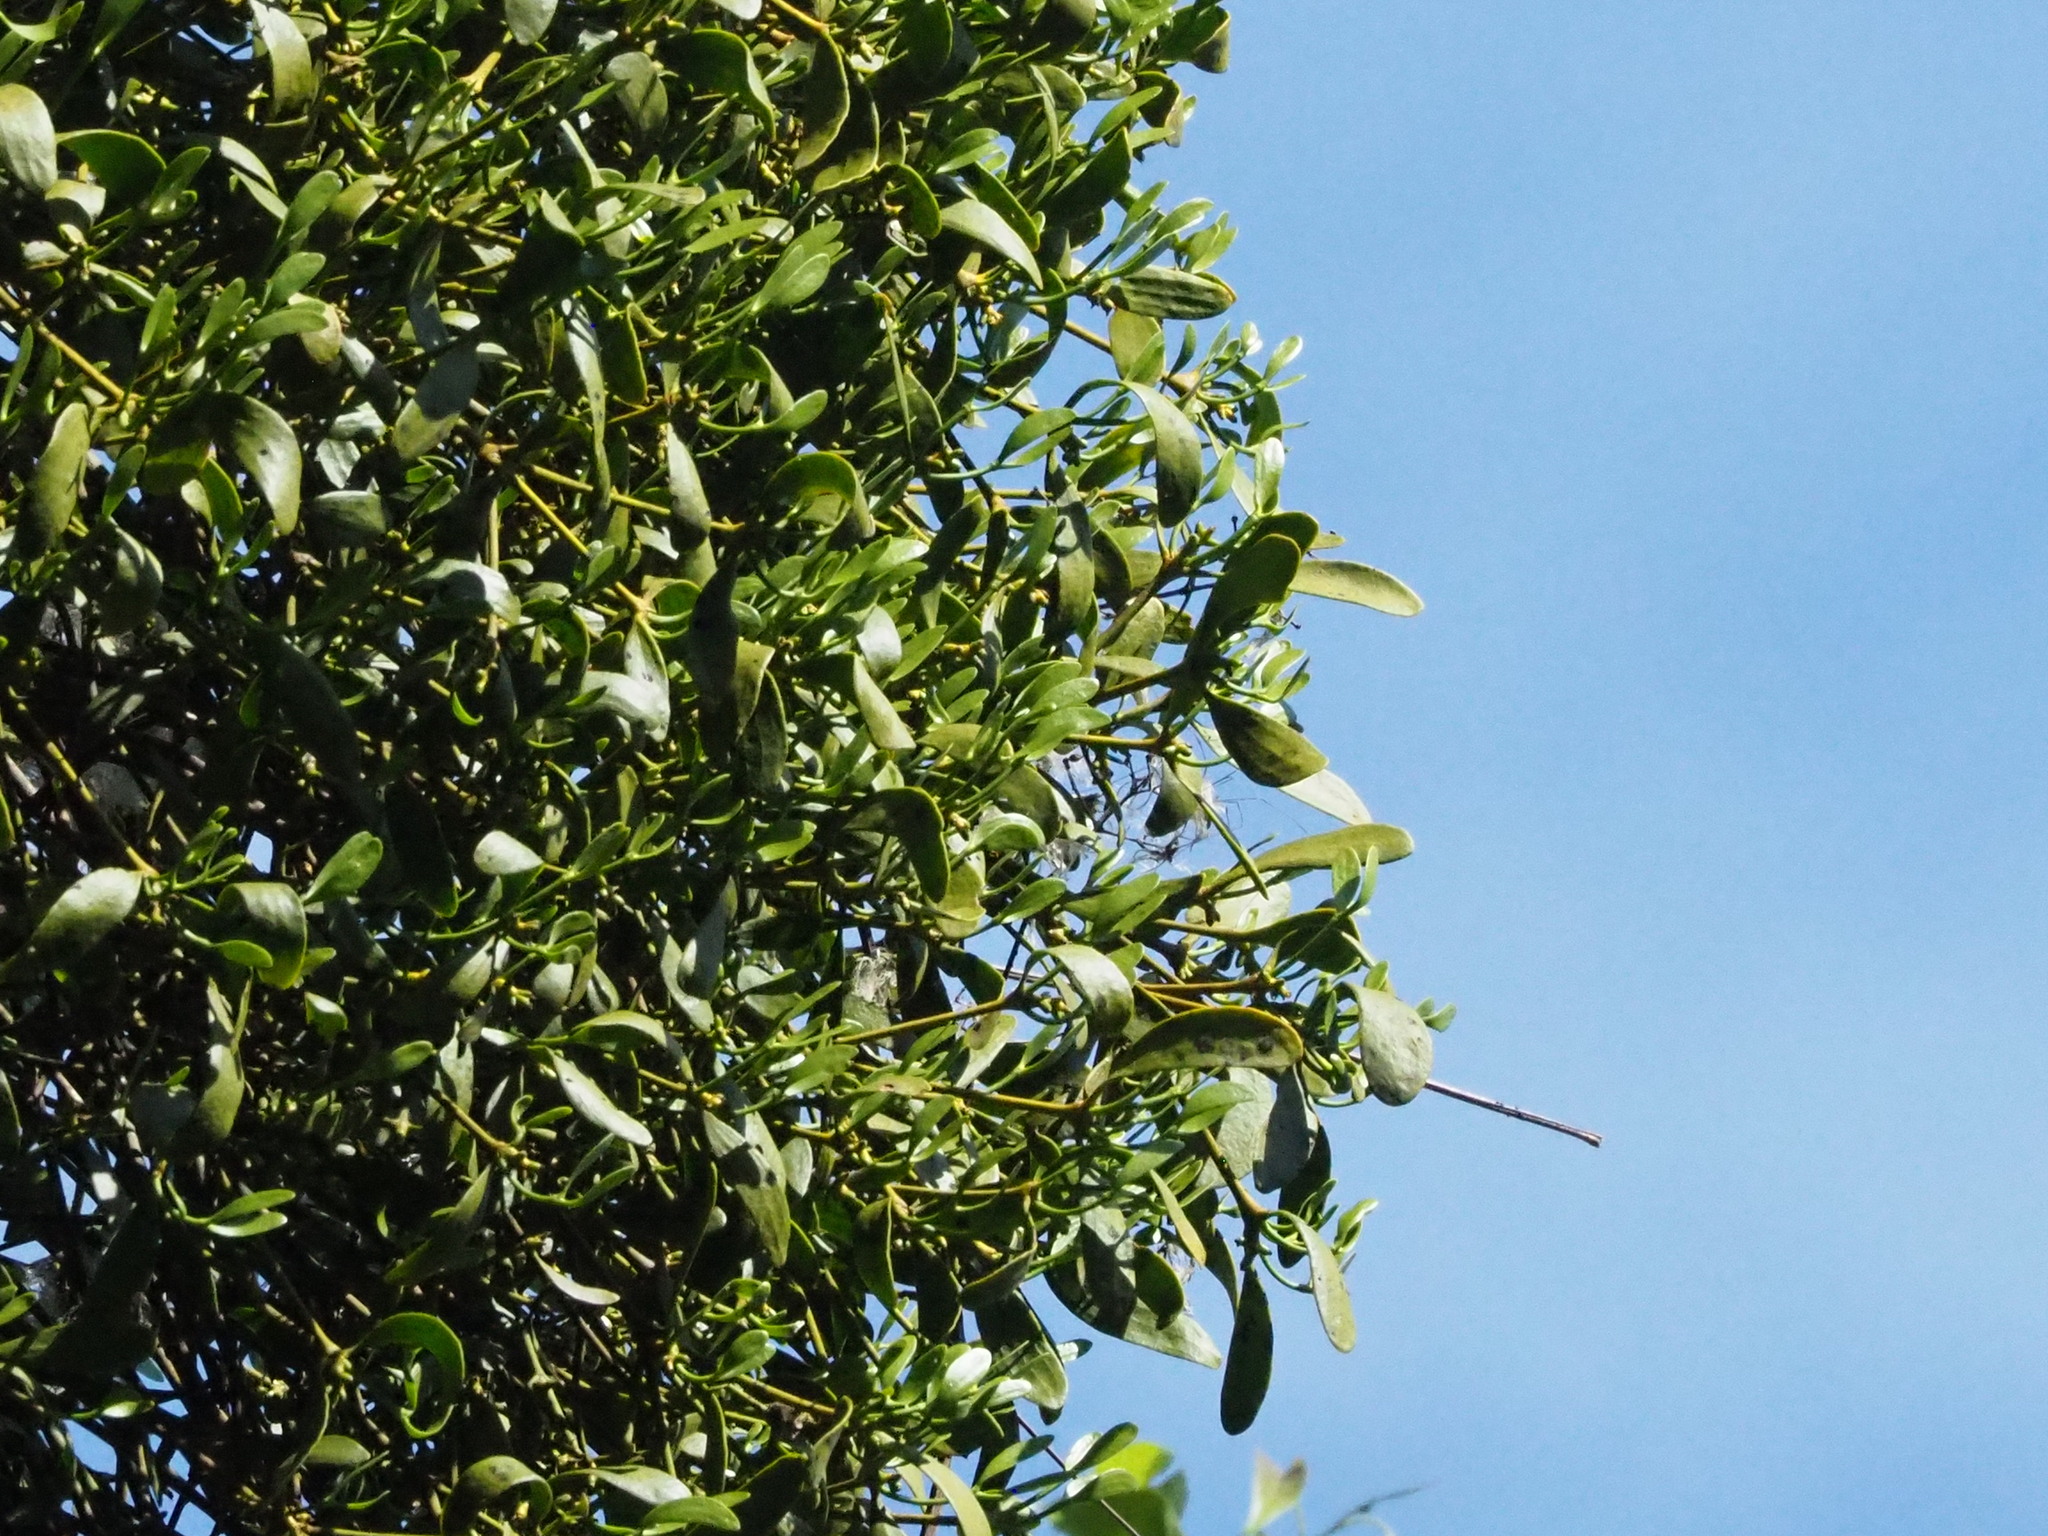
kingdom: Plantae
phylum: Tracheophyta
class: Magnoliopsida
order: Santalales
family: Viscaceae
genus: Viscum
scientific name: Viscum coloratum
